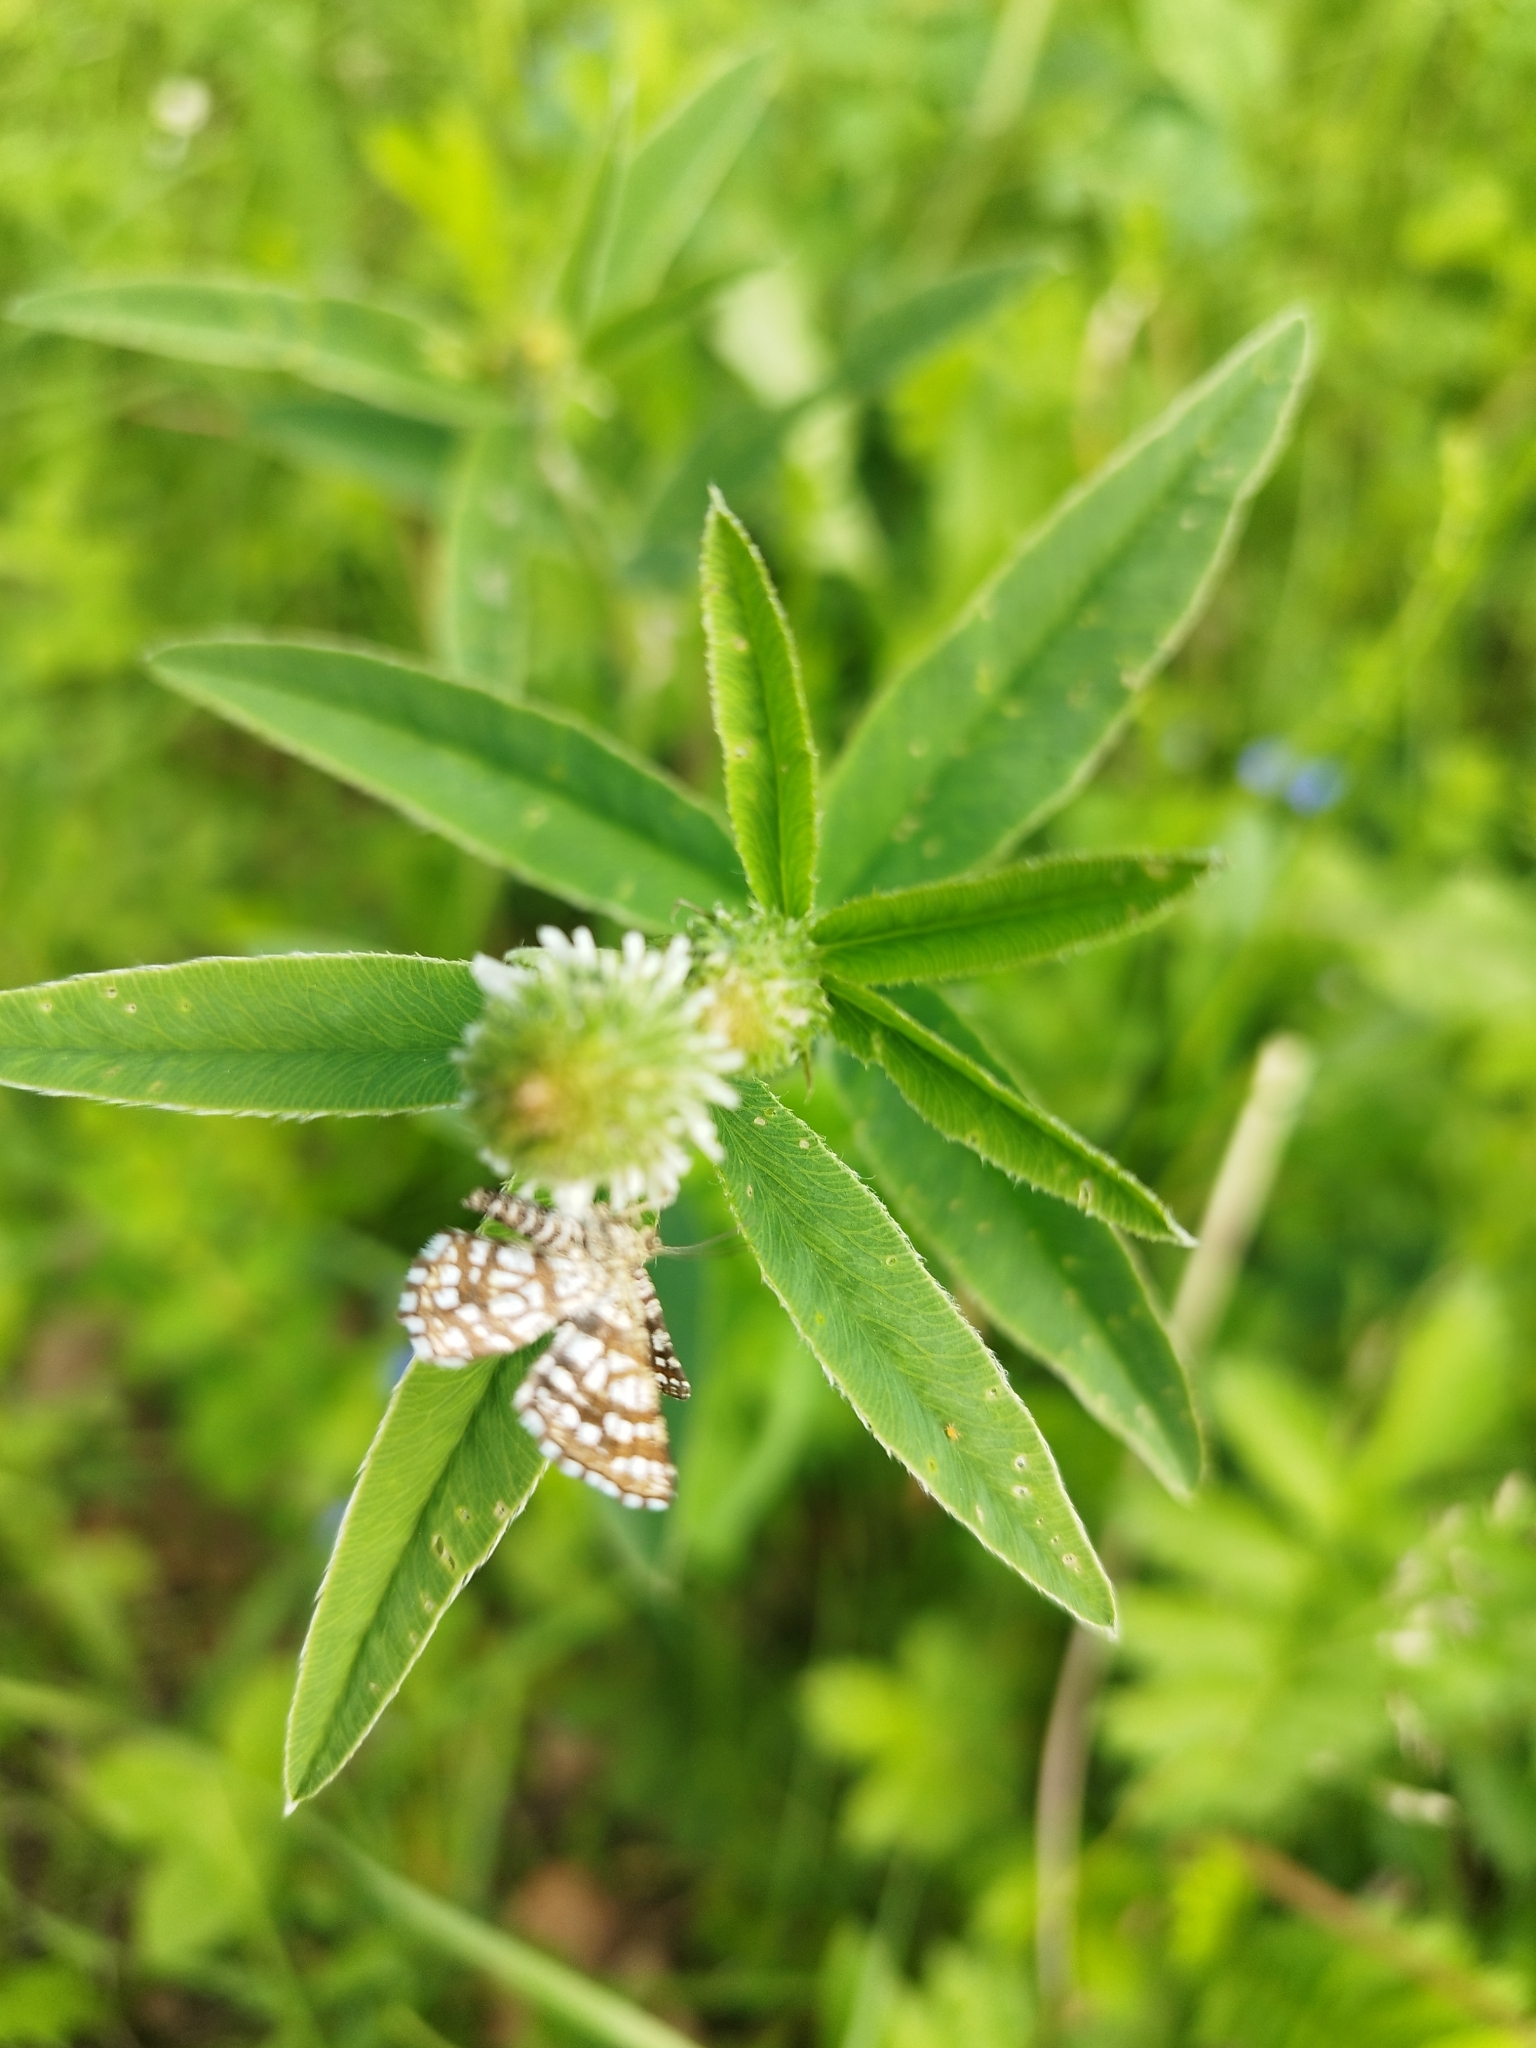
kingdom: Animalia
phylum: Arthropoda
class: Insecta
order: Lepidoptera
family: Geometridae
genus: Chiasmia
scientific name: Chiasmia clathrata
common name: Latticed heath
